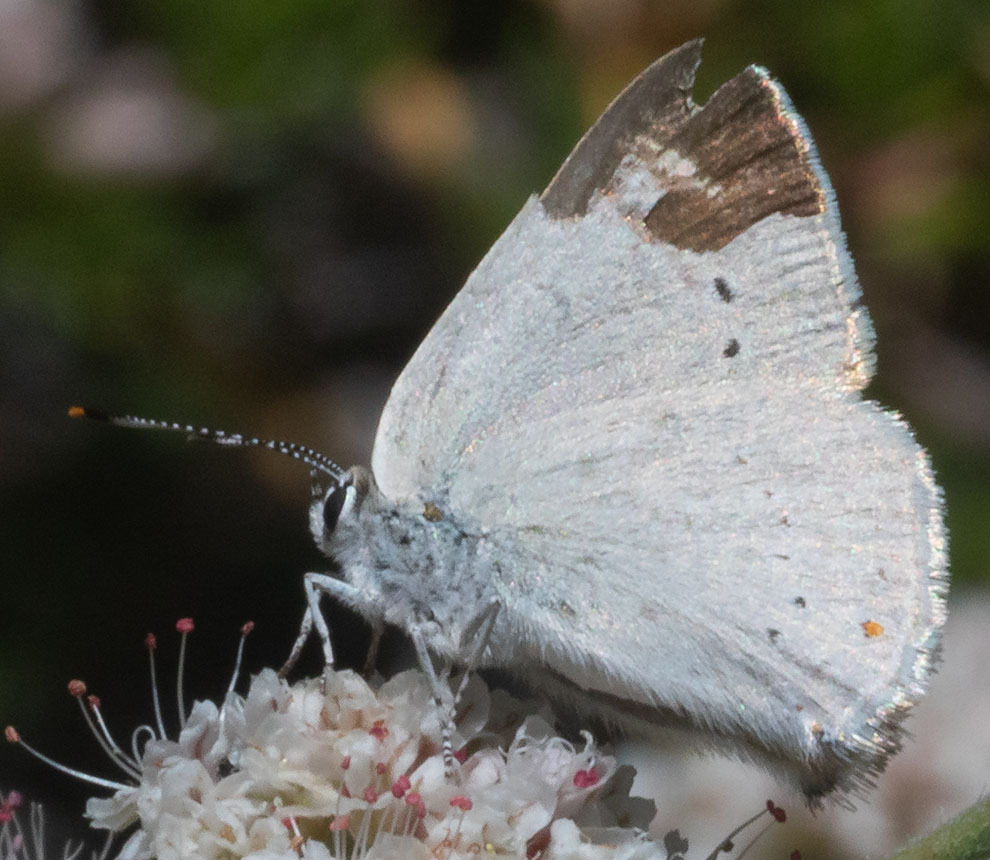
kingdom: Animalia
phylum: Arthropoda
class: Insecta
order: Lepidoptera
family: Lycaenidae
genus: Thecla
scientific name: Thecla dryope
